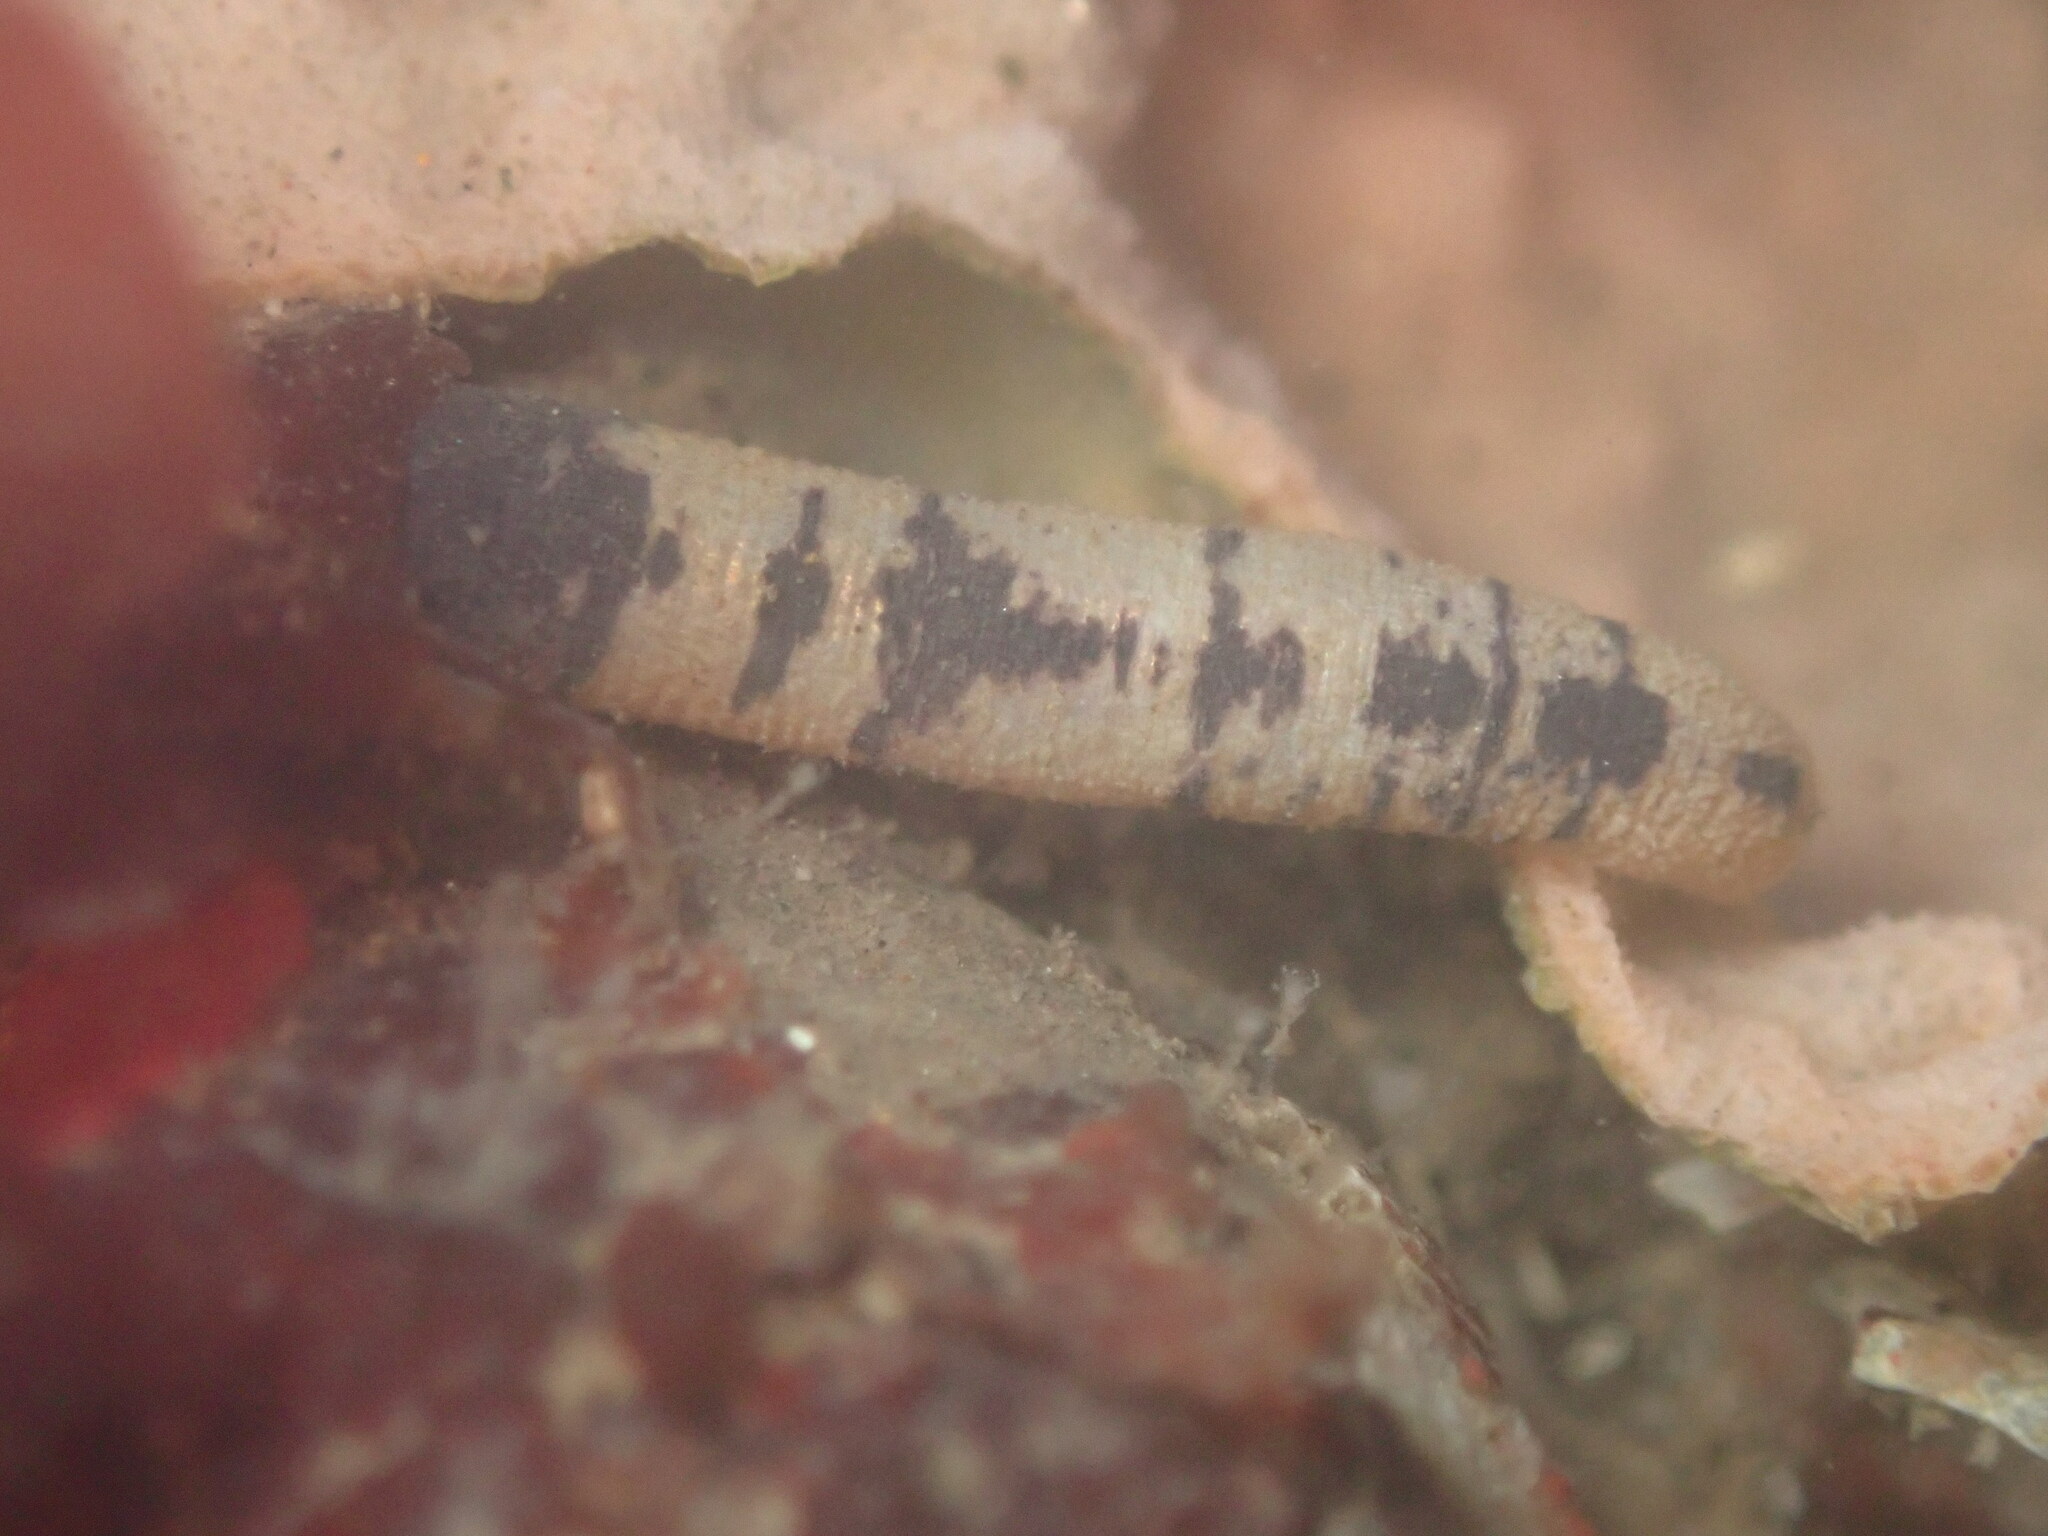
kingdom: Animalia
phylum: Sipuncula
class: Phascolosomatidea
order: Phascolosomatiformes
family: Phascolosomatidae
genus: Phascolosoma
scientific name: Phascolosoma agassizii
